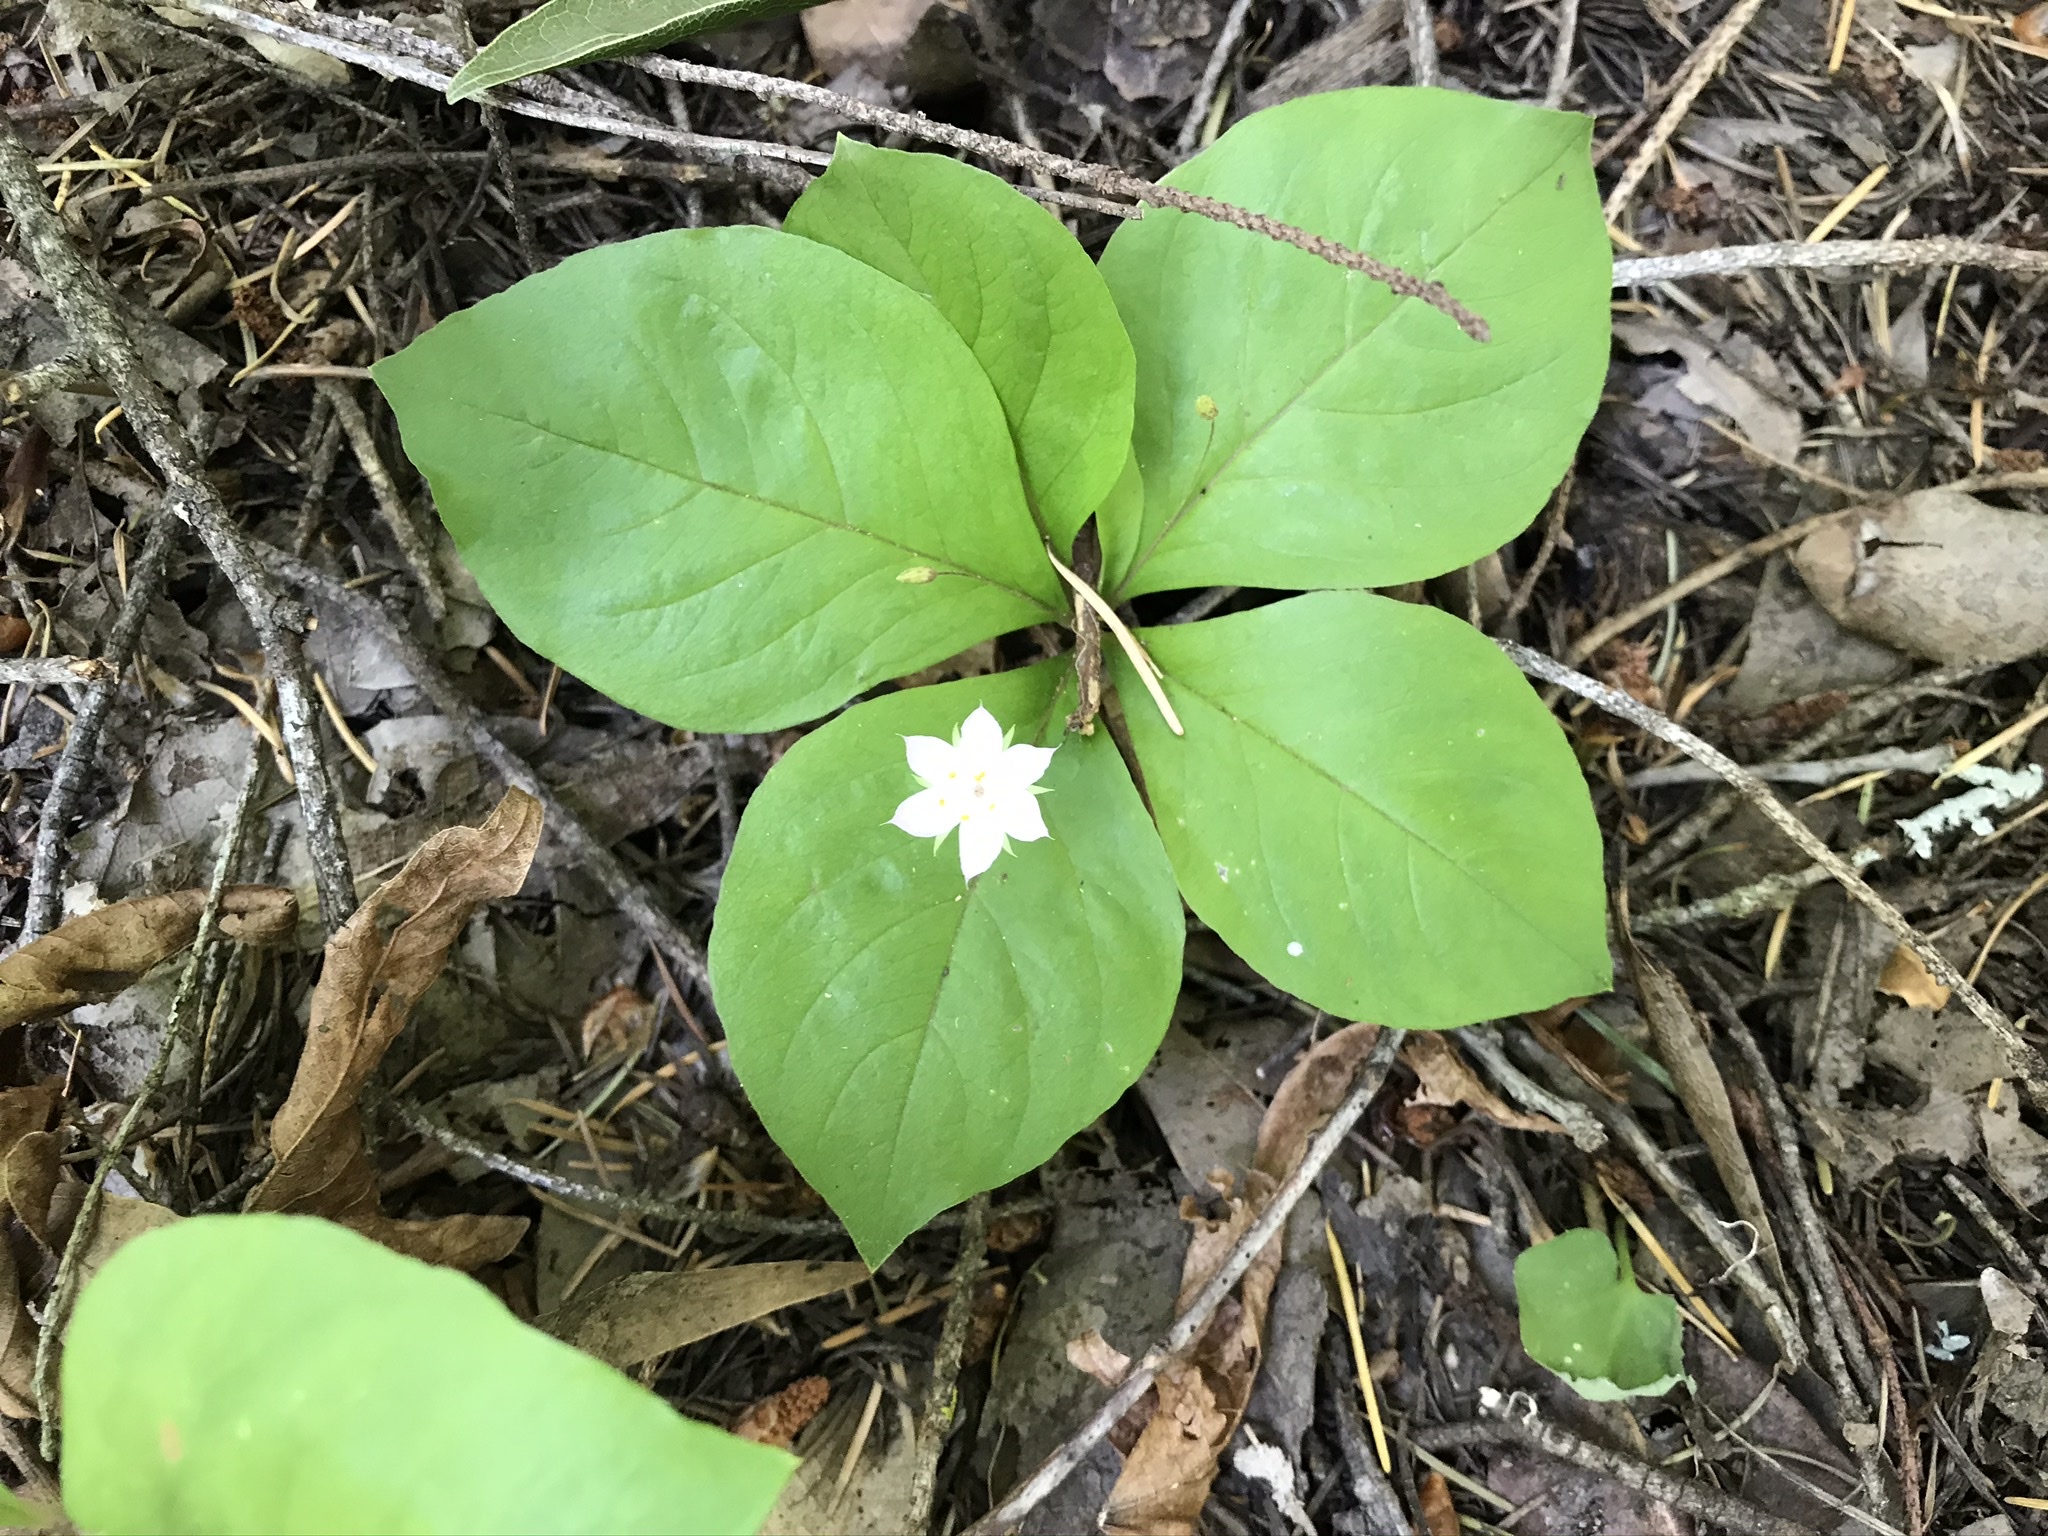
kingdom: Plantae
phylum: Tracheophyta
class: Magnoliopsida
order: Ericales
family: Primulaceae
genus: Lysimachia
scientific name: Lysimachia latifolia
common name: Pacific starflower
